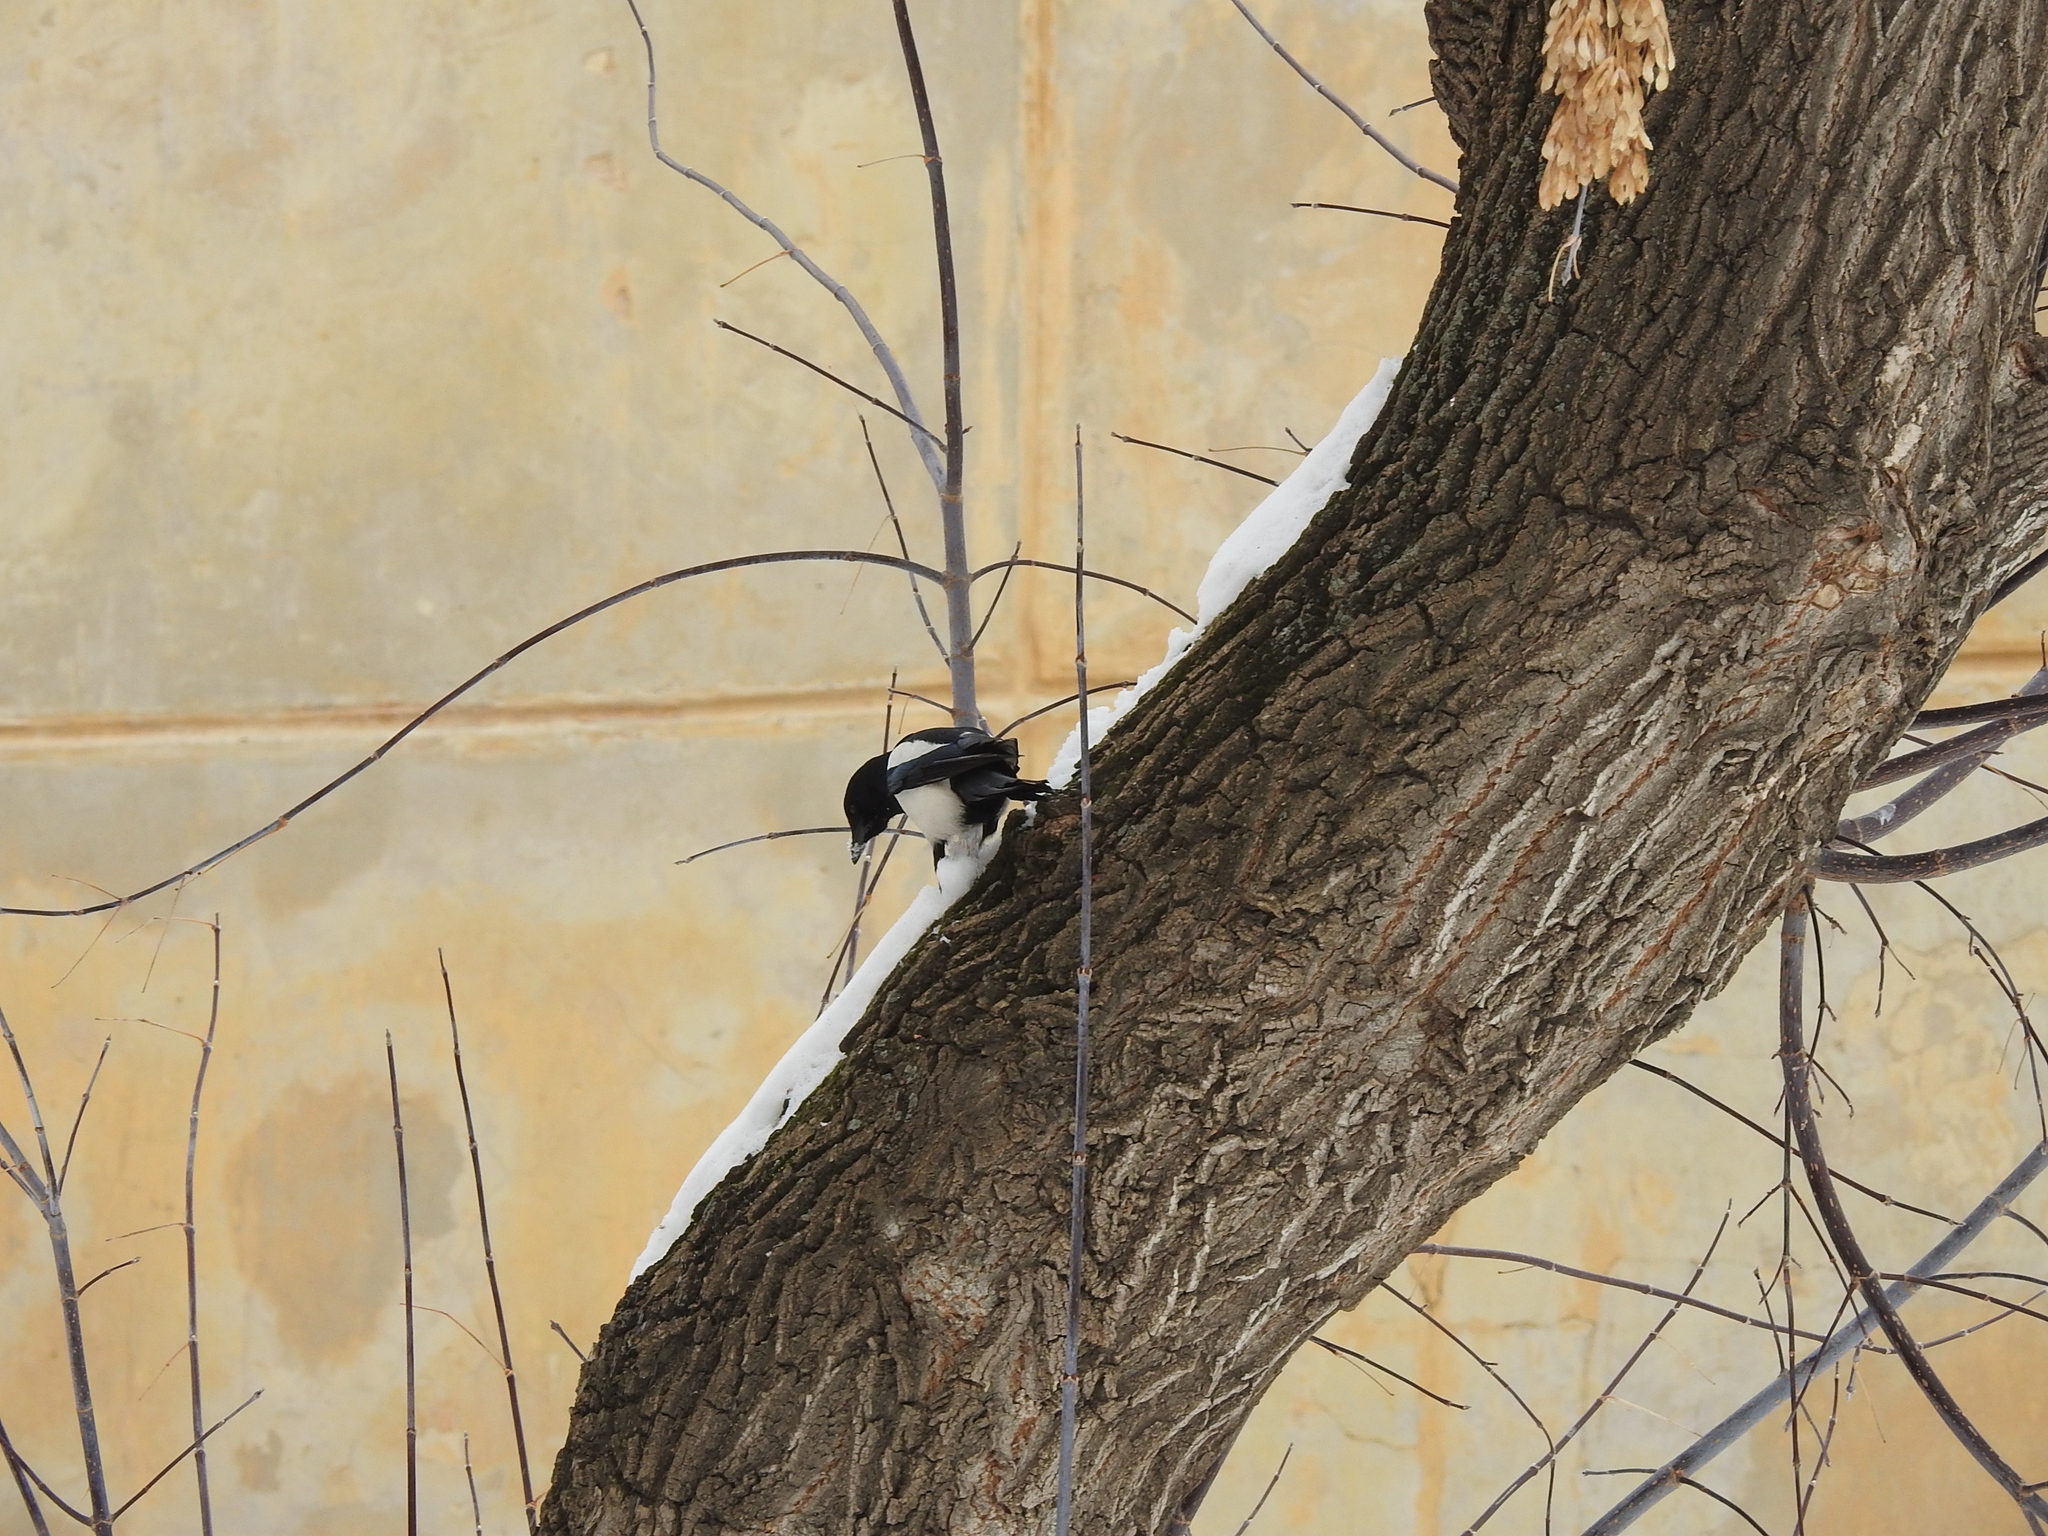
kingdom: Animalia
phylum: Chordata
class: Aves
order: Passeriformes
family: Corvidae
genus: Pica
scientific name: Pica pica
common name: Eurasian magpie
